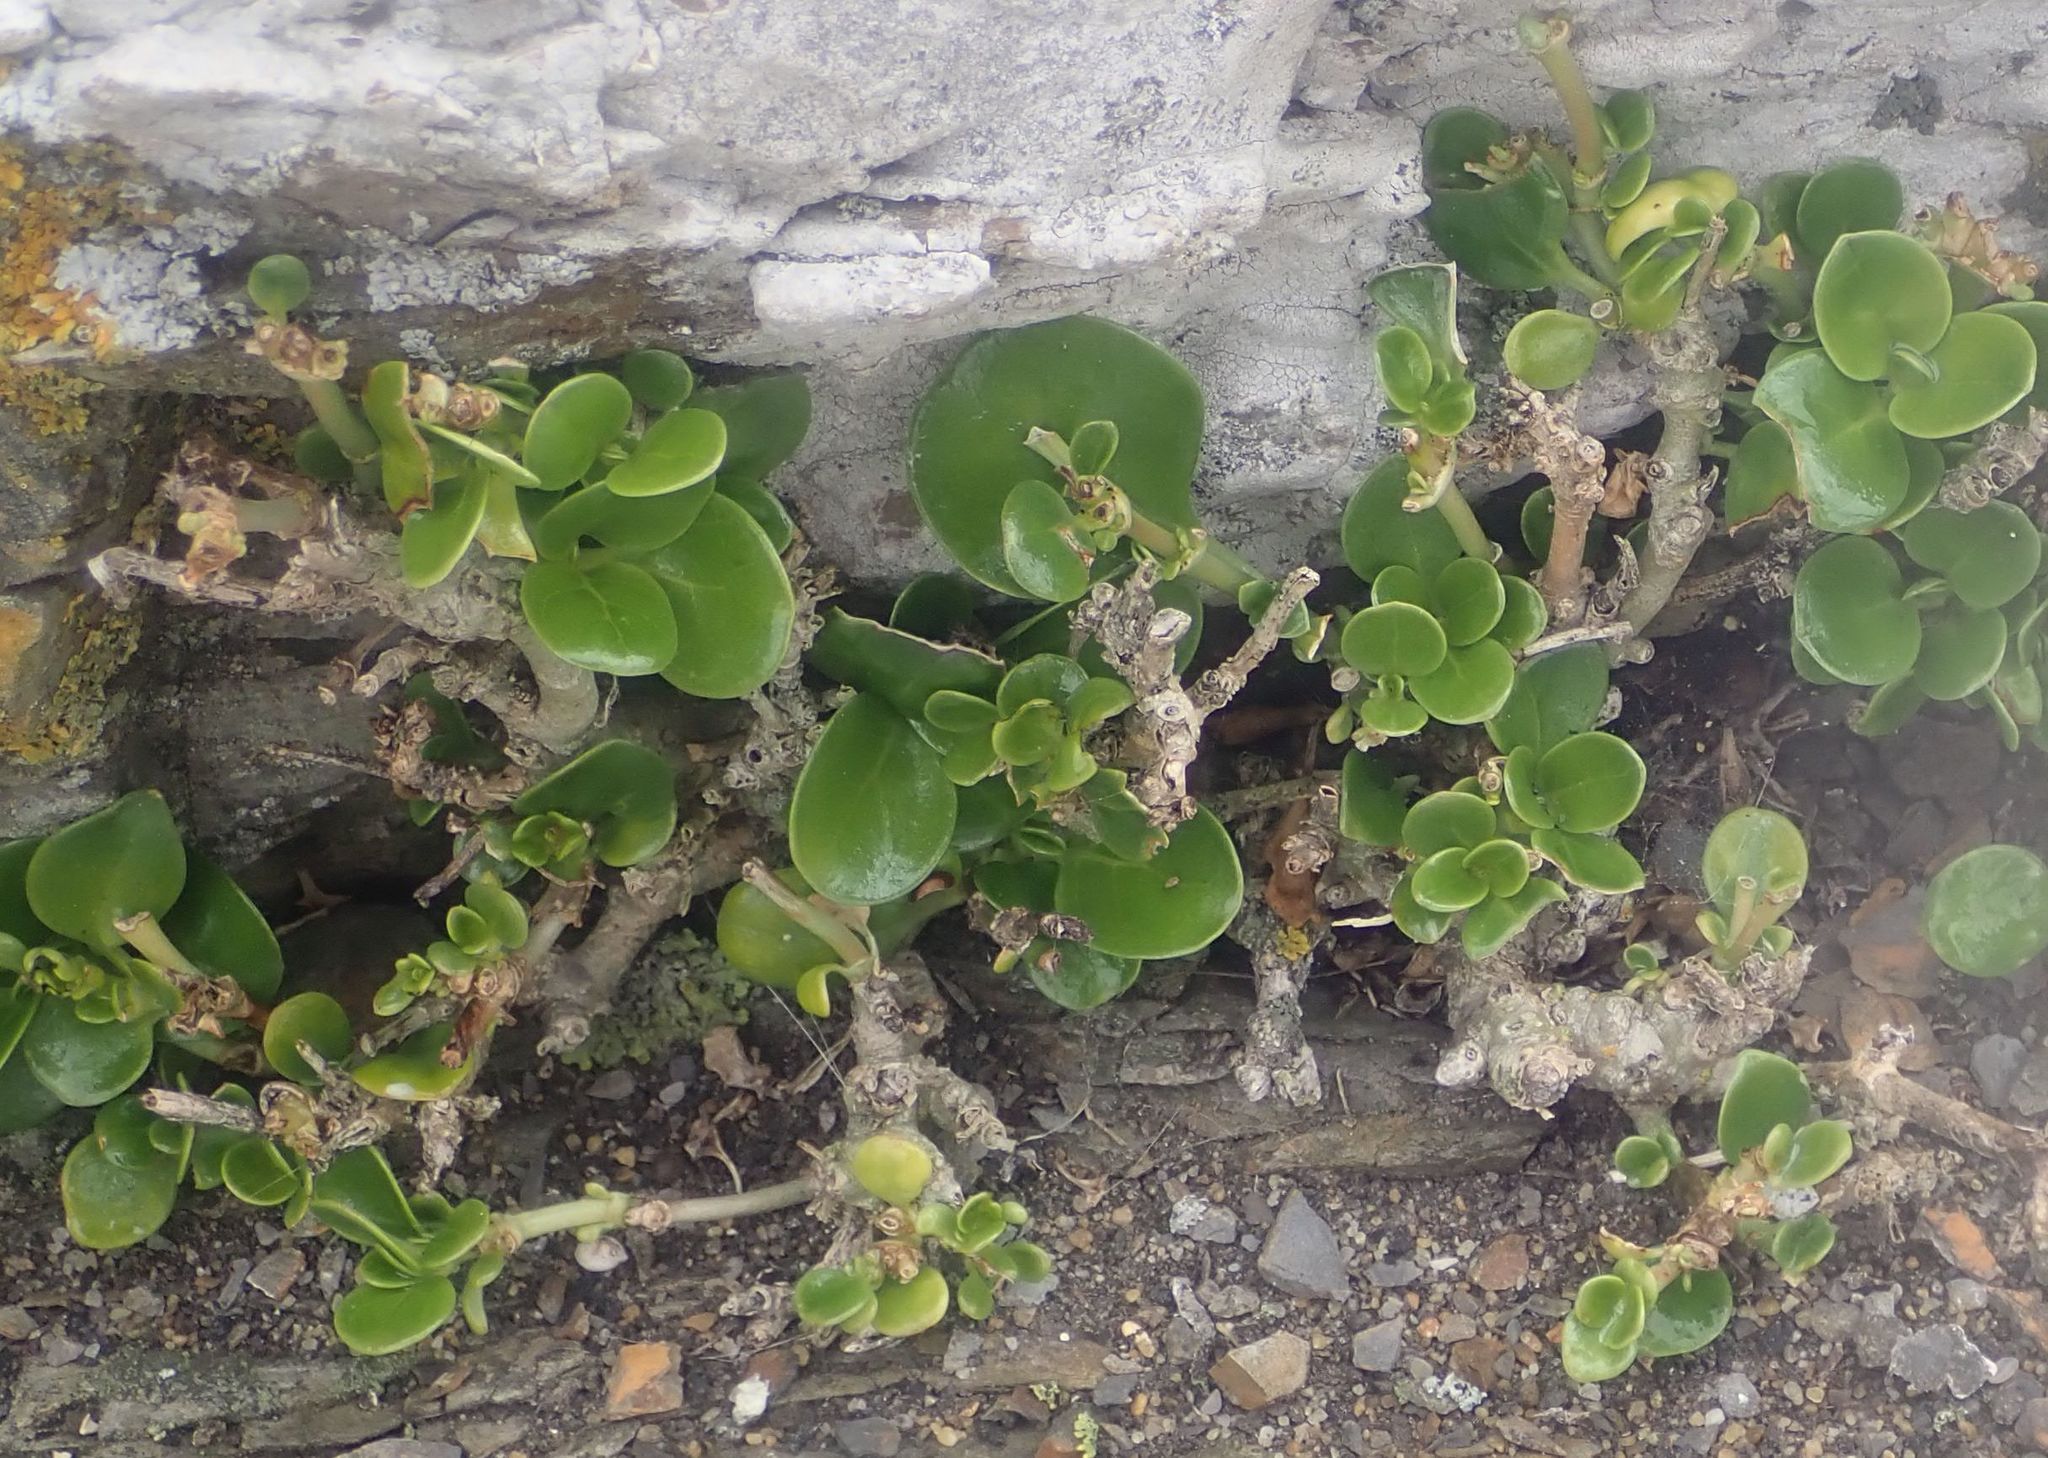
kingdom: Plantae
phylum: Tracheophyta
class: Magnoliopsida
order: Gentianales
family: Rubiaceae
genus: Coprosma
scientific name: Coprosma repens
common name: Tree bedstraw
